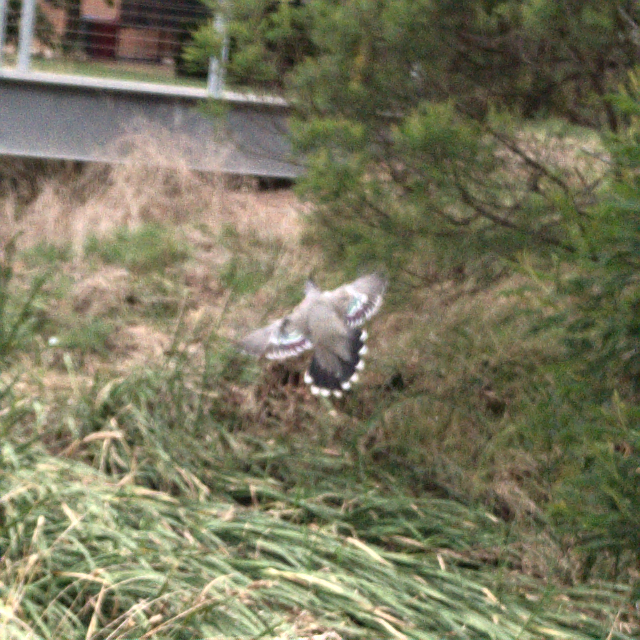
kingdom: Animalia
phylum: Chordata
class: Aves
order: Columbiformes
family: Columbidae
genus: Ocyphaps
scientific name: Ocyphaps lophotes
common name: Crested pigeon
